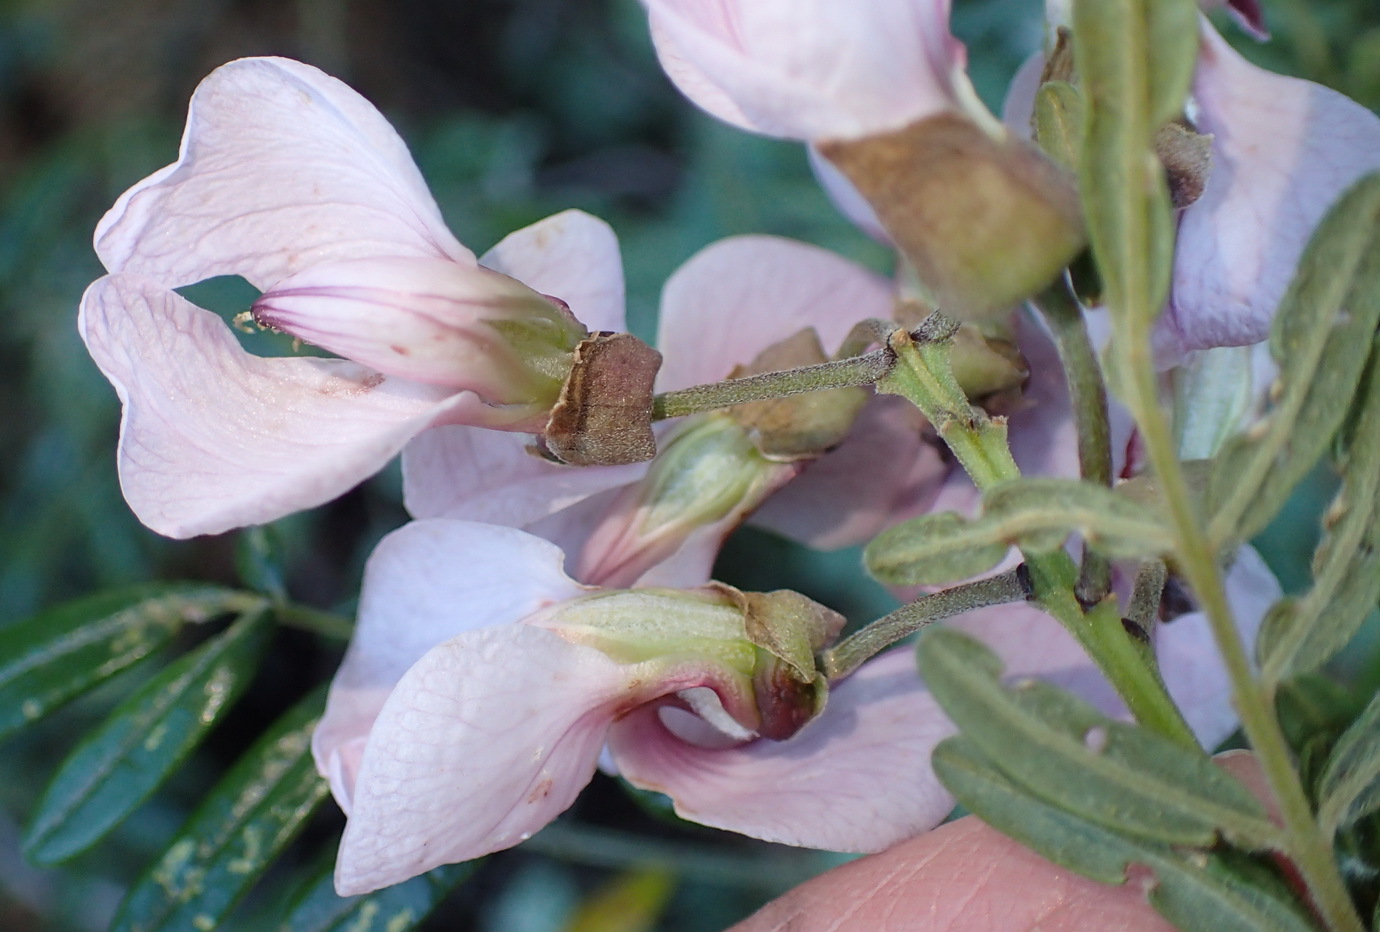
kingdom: Plantae
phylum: Tracheophyta
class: Magnoliopsida
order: Fabales
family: Fabaceae
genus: Virgilia
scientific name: Virgilia divaricata
